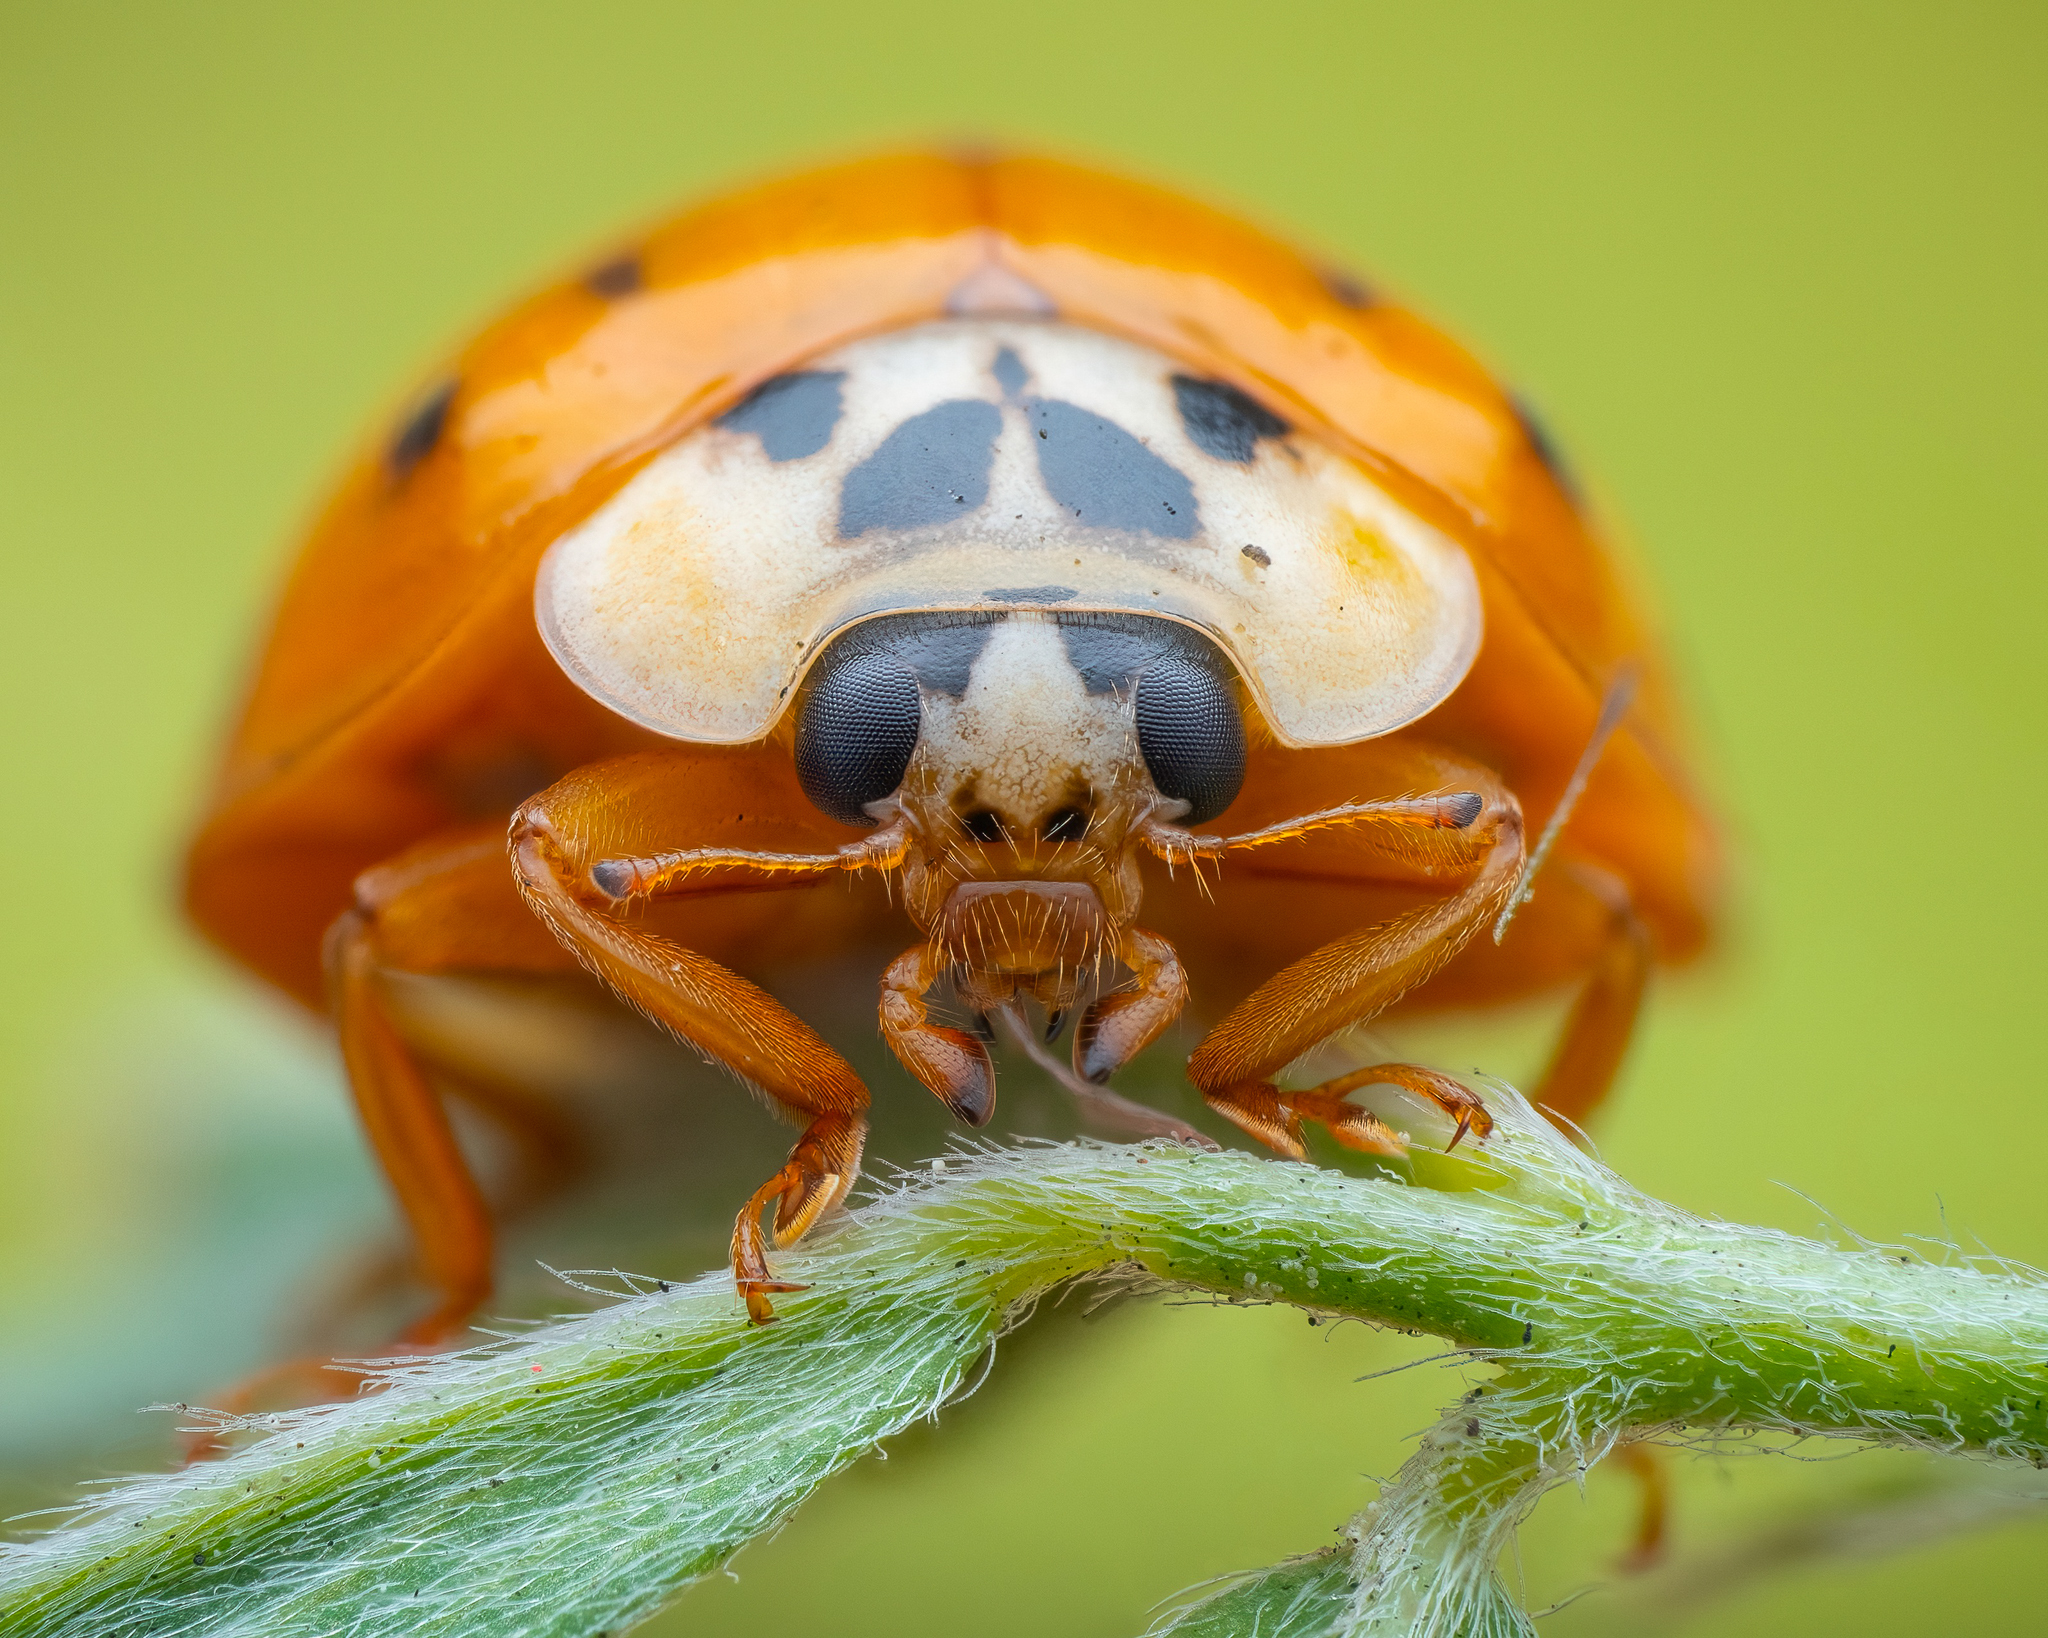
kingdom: Animalia
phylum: Arthropoda
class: Insecta
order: Coleoptera
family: Coccinellidae
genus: Harmonia
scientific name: Harmonia axyridis
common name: Harlequin ladybird
